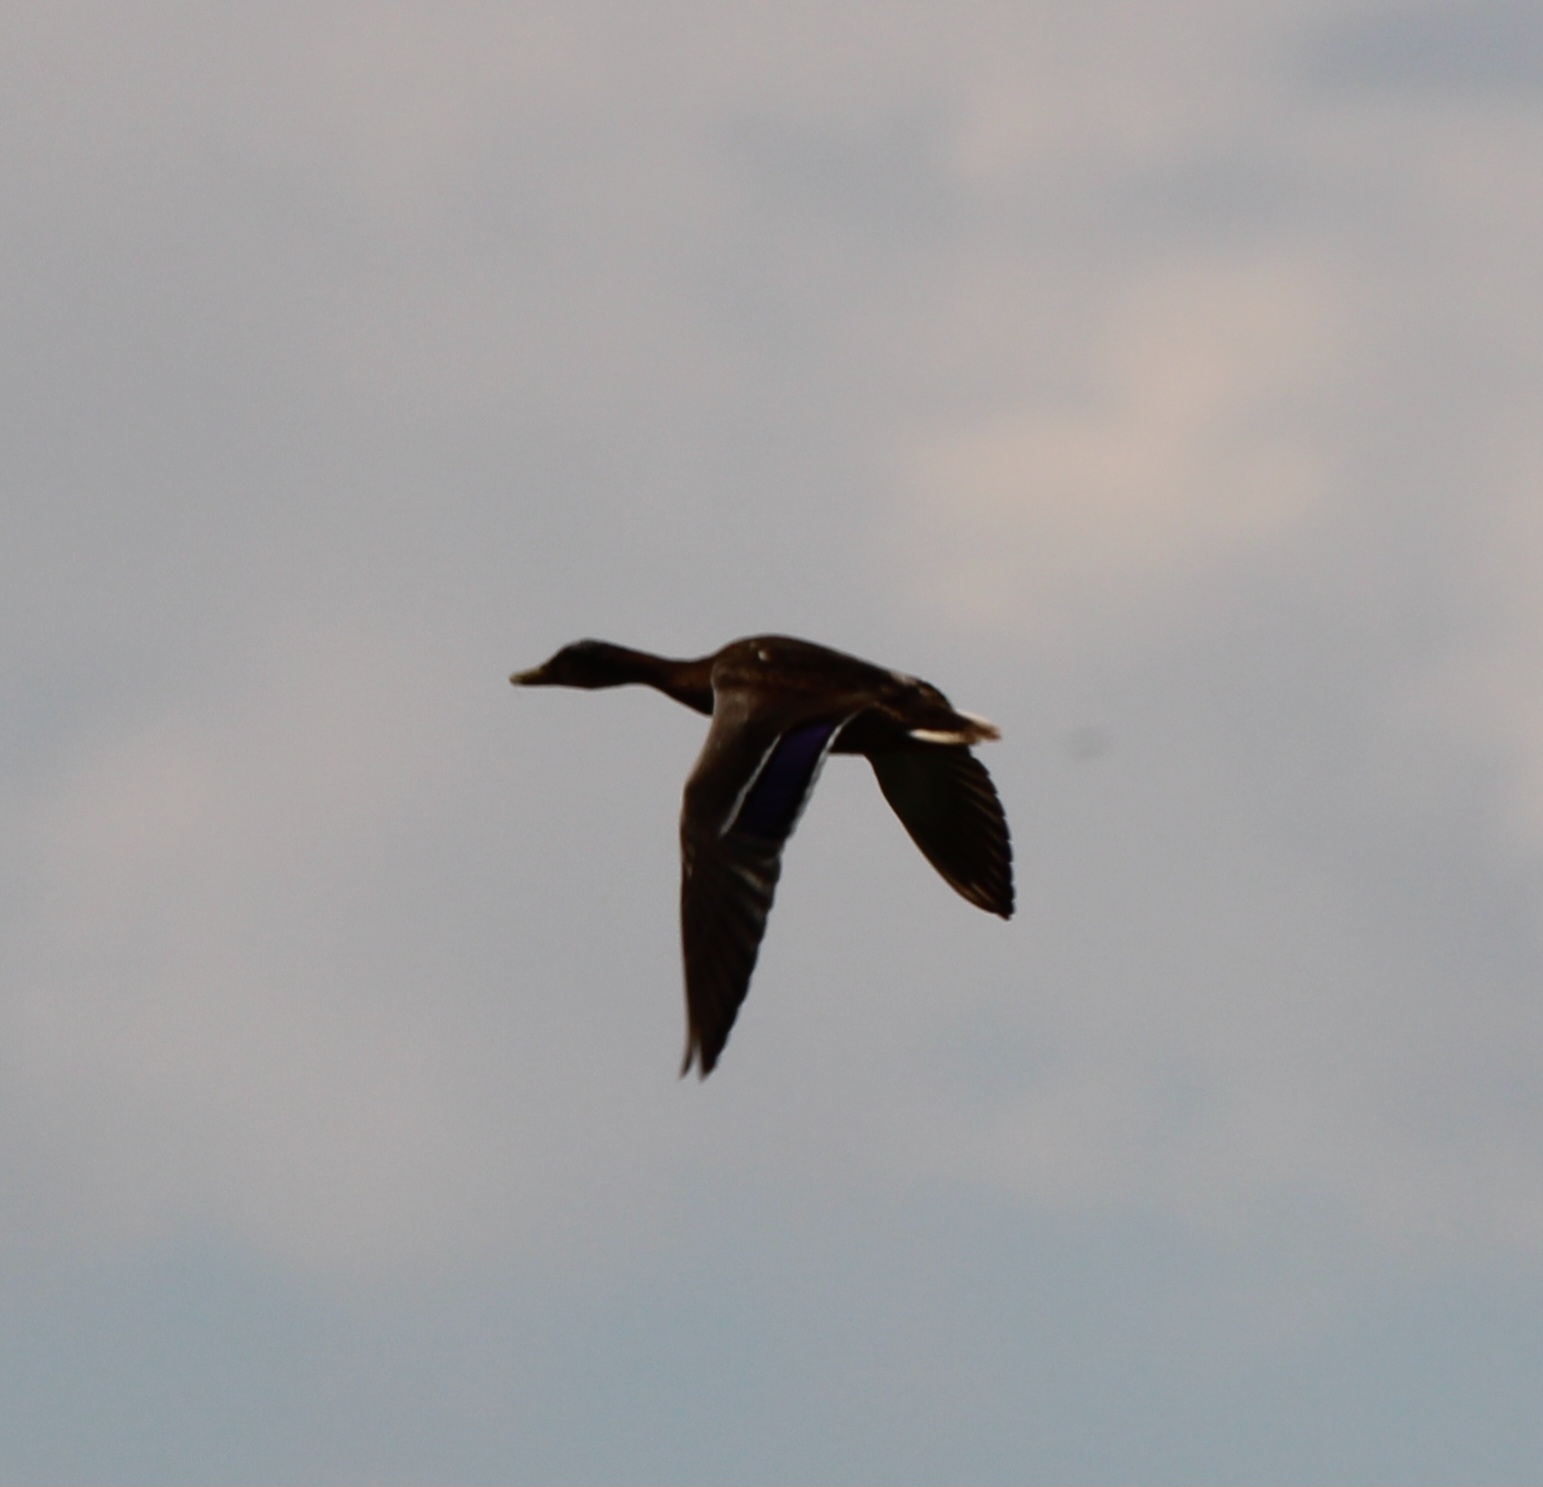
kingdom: Animalia
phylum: Chordata
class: Aves
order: Anseriformes
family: Anatidae
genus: Anas
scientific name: Anas platyrhynchos
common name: Mallard
